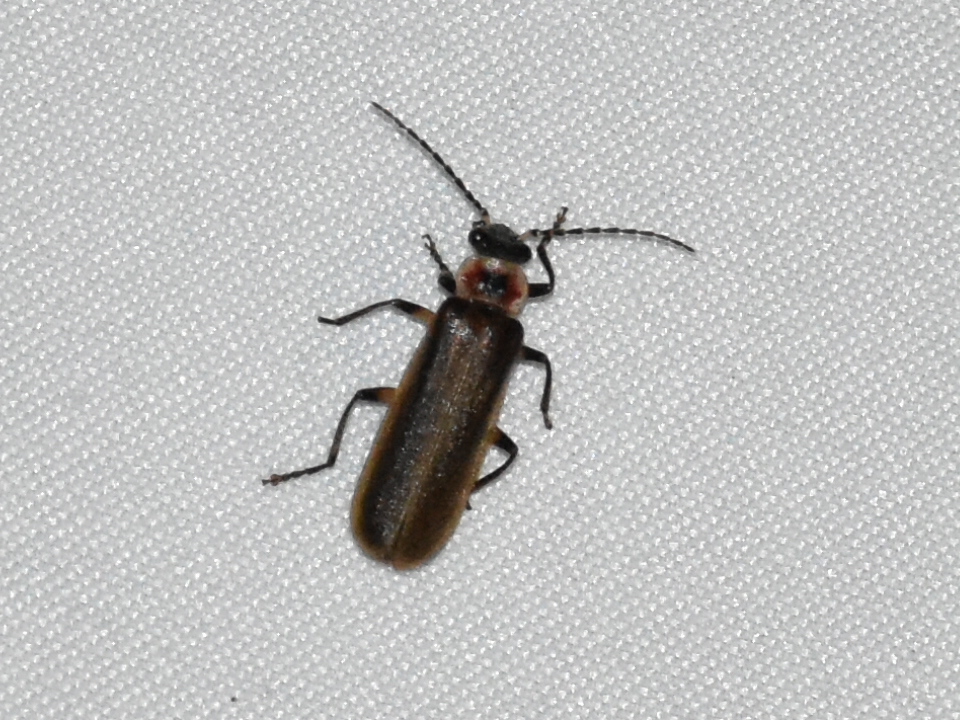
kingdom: Animalia
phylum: Arthropoda
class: Insecta
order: Coleoptera
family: Cantharidae
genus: Podabrus
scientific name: Podabrus appendiculatus
